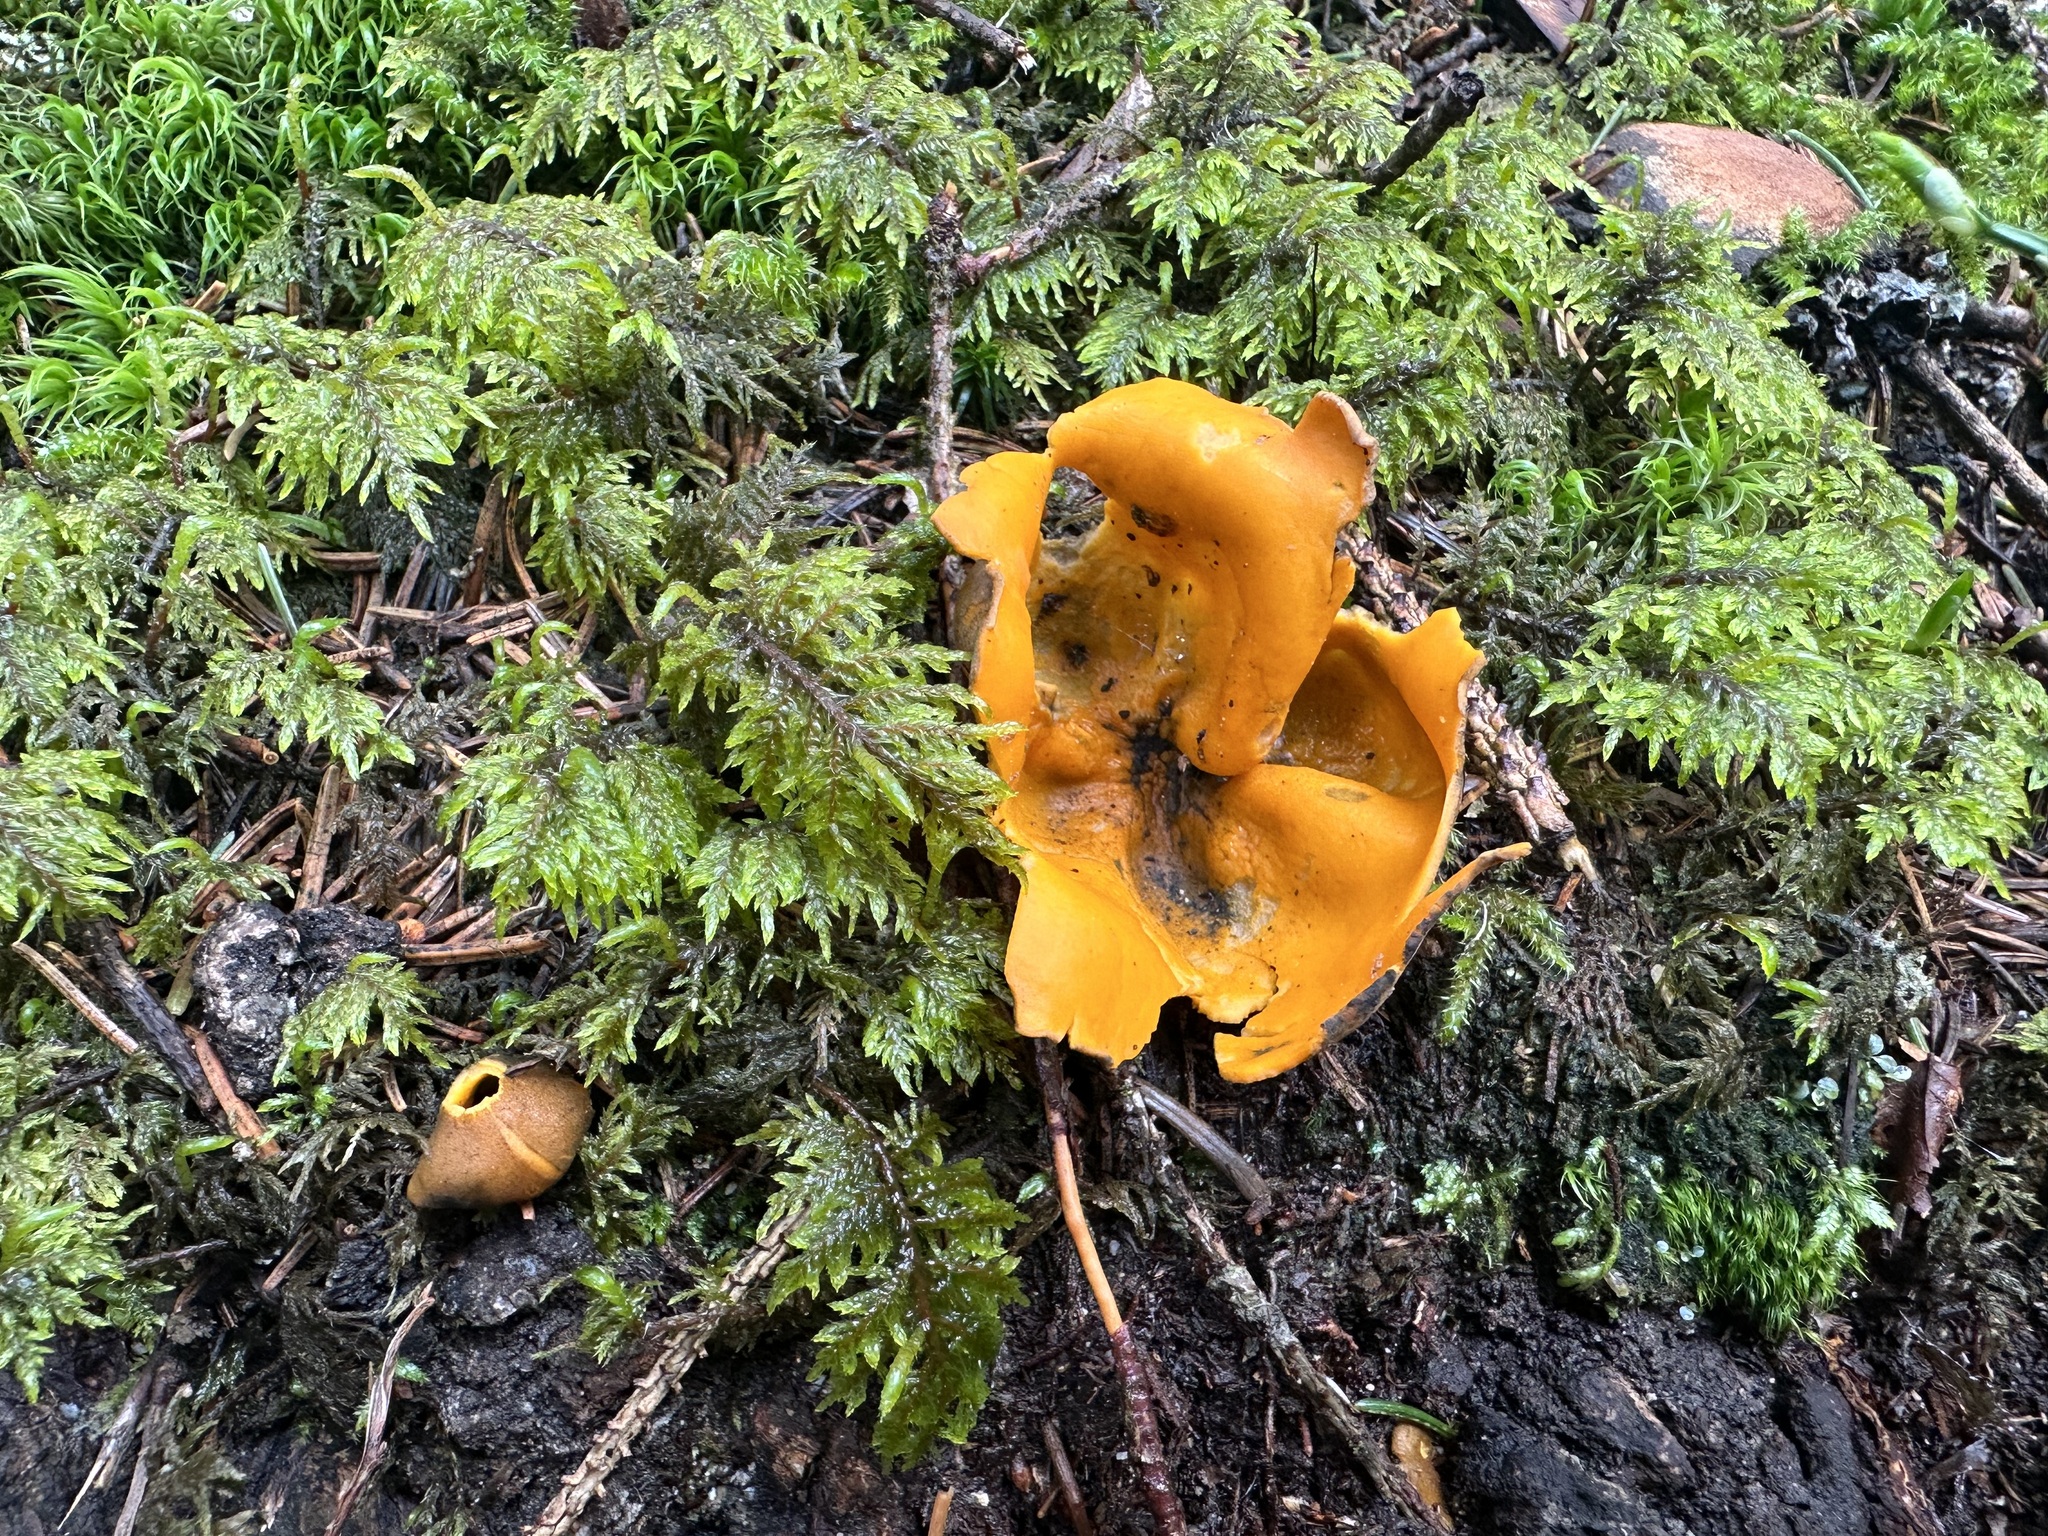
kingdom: Fungi
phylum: Ascomycota
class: Pezizomycetes
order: Pezizales
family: Caloscyphaceae
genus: Caloscypha
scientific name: Caloscypha fulgens
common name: Golden cup
